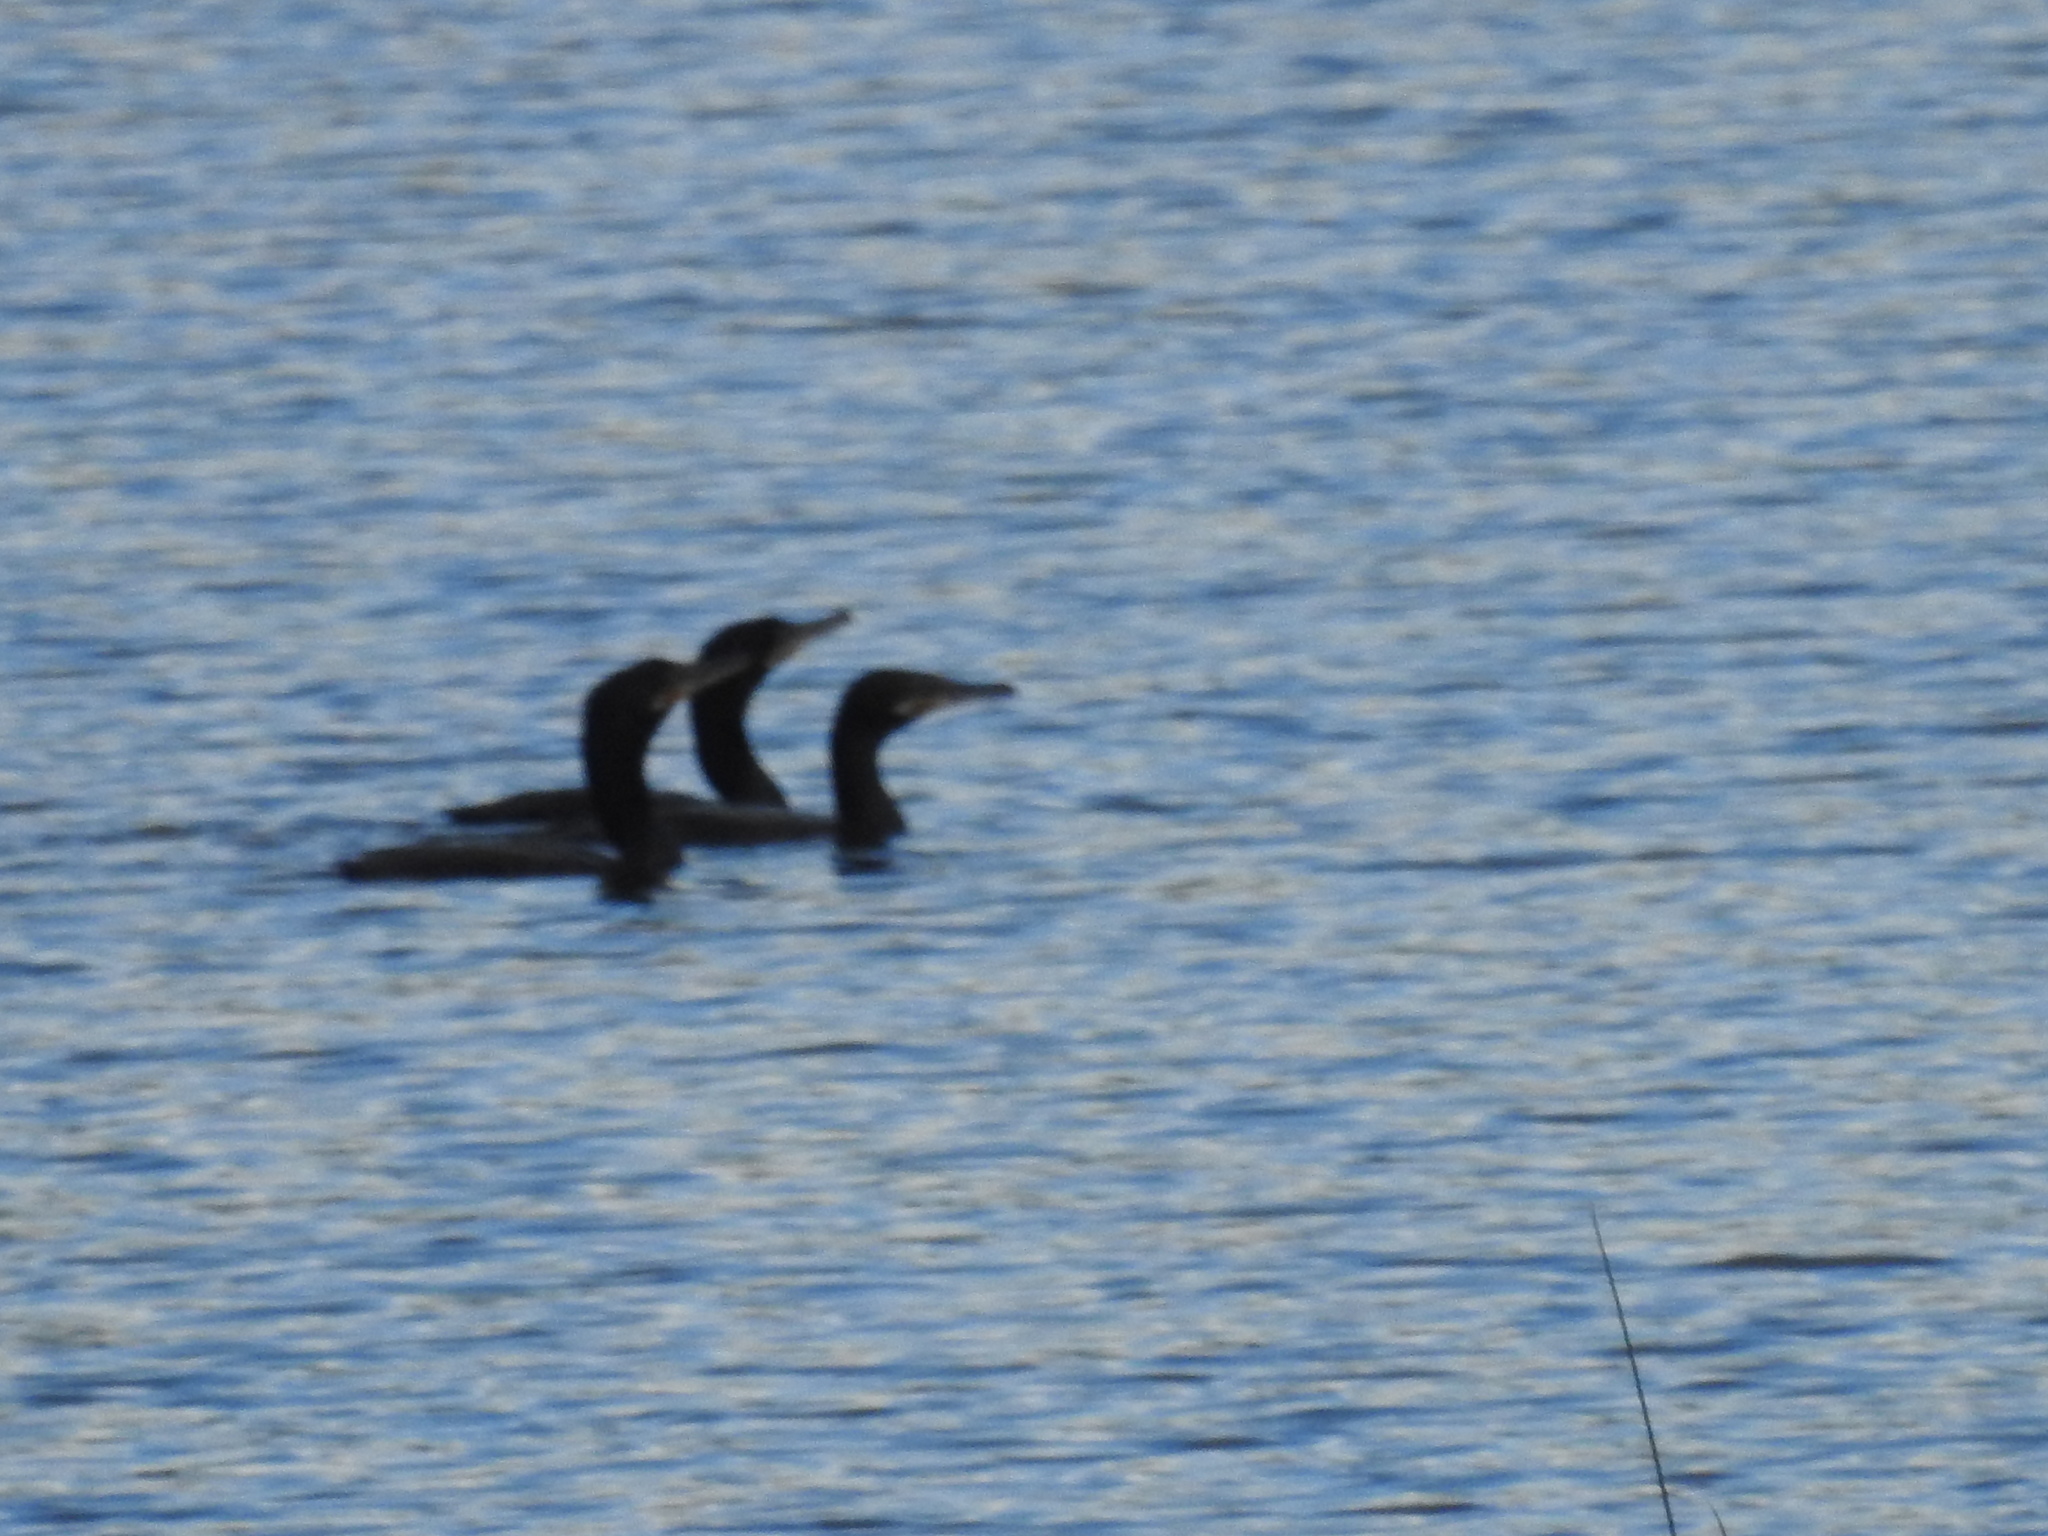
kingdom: Animalia
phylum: Chordata
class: Aves
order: Suliformes
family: Phalacrocoracidae
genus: Phalacrocorax
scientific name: Phalacrocorax brasilianus
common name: Neotropic cormorant
